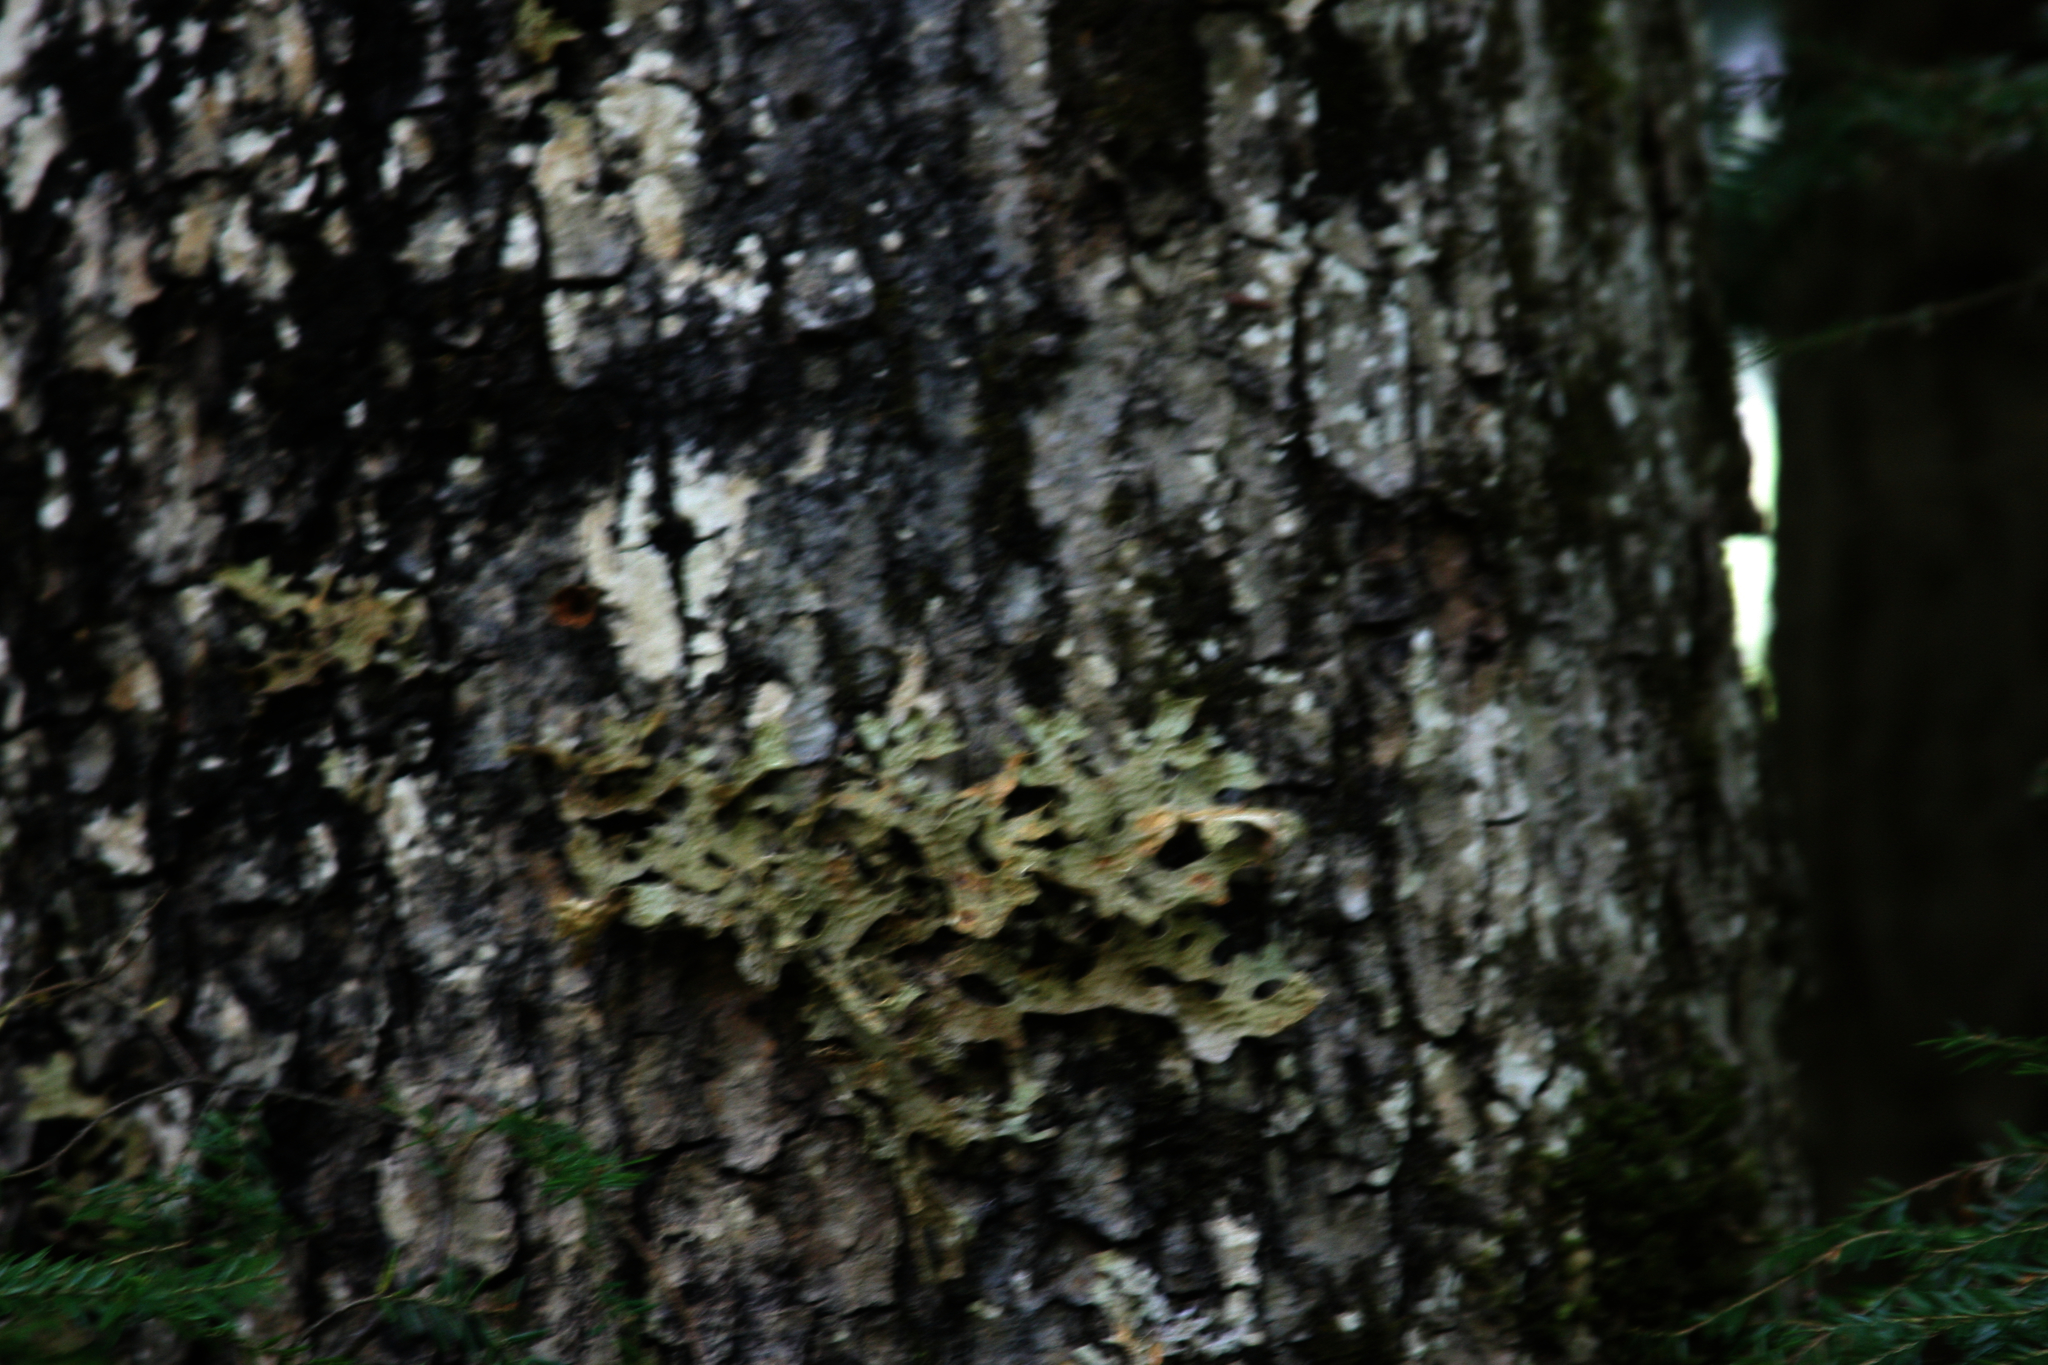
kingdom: Fungi
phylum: Ascomycota
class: Lecanoromycetes
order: Peltigerales
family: Lobariaceae
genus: Lobaria
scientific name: Lobaria pulmonaria
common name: Lungwort
